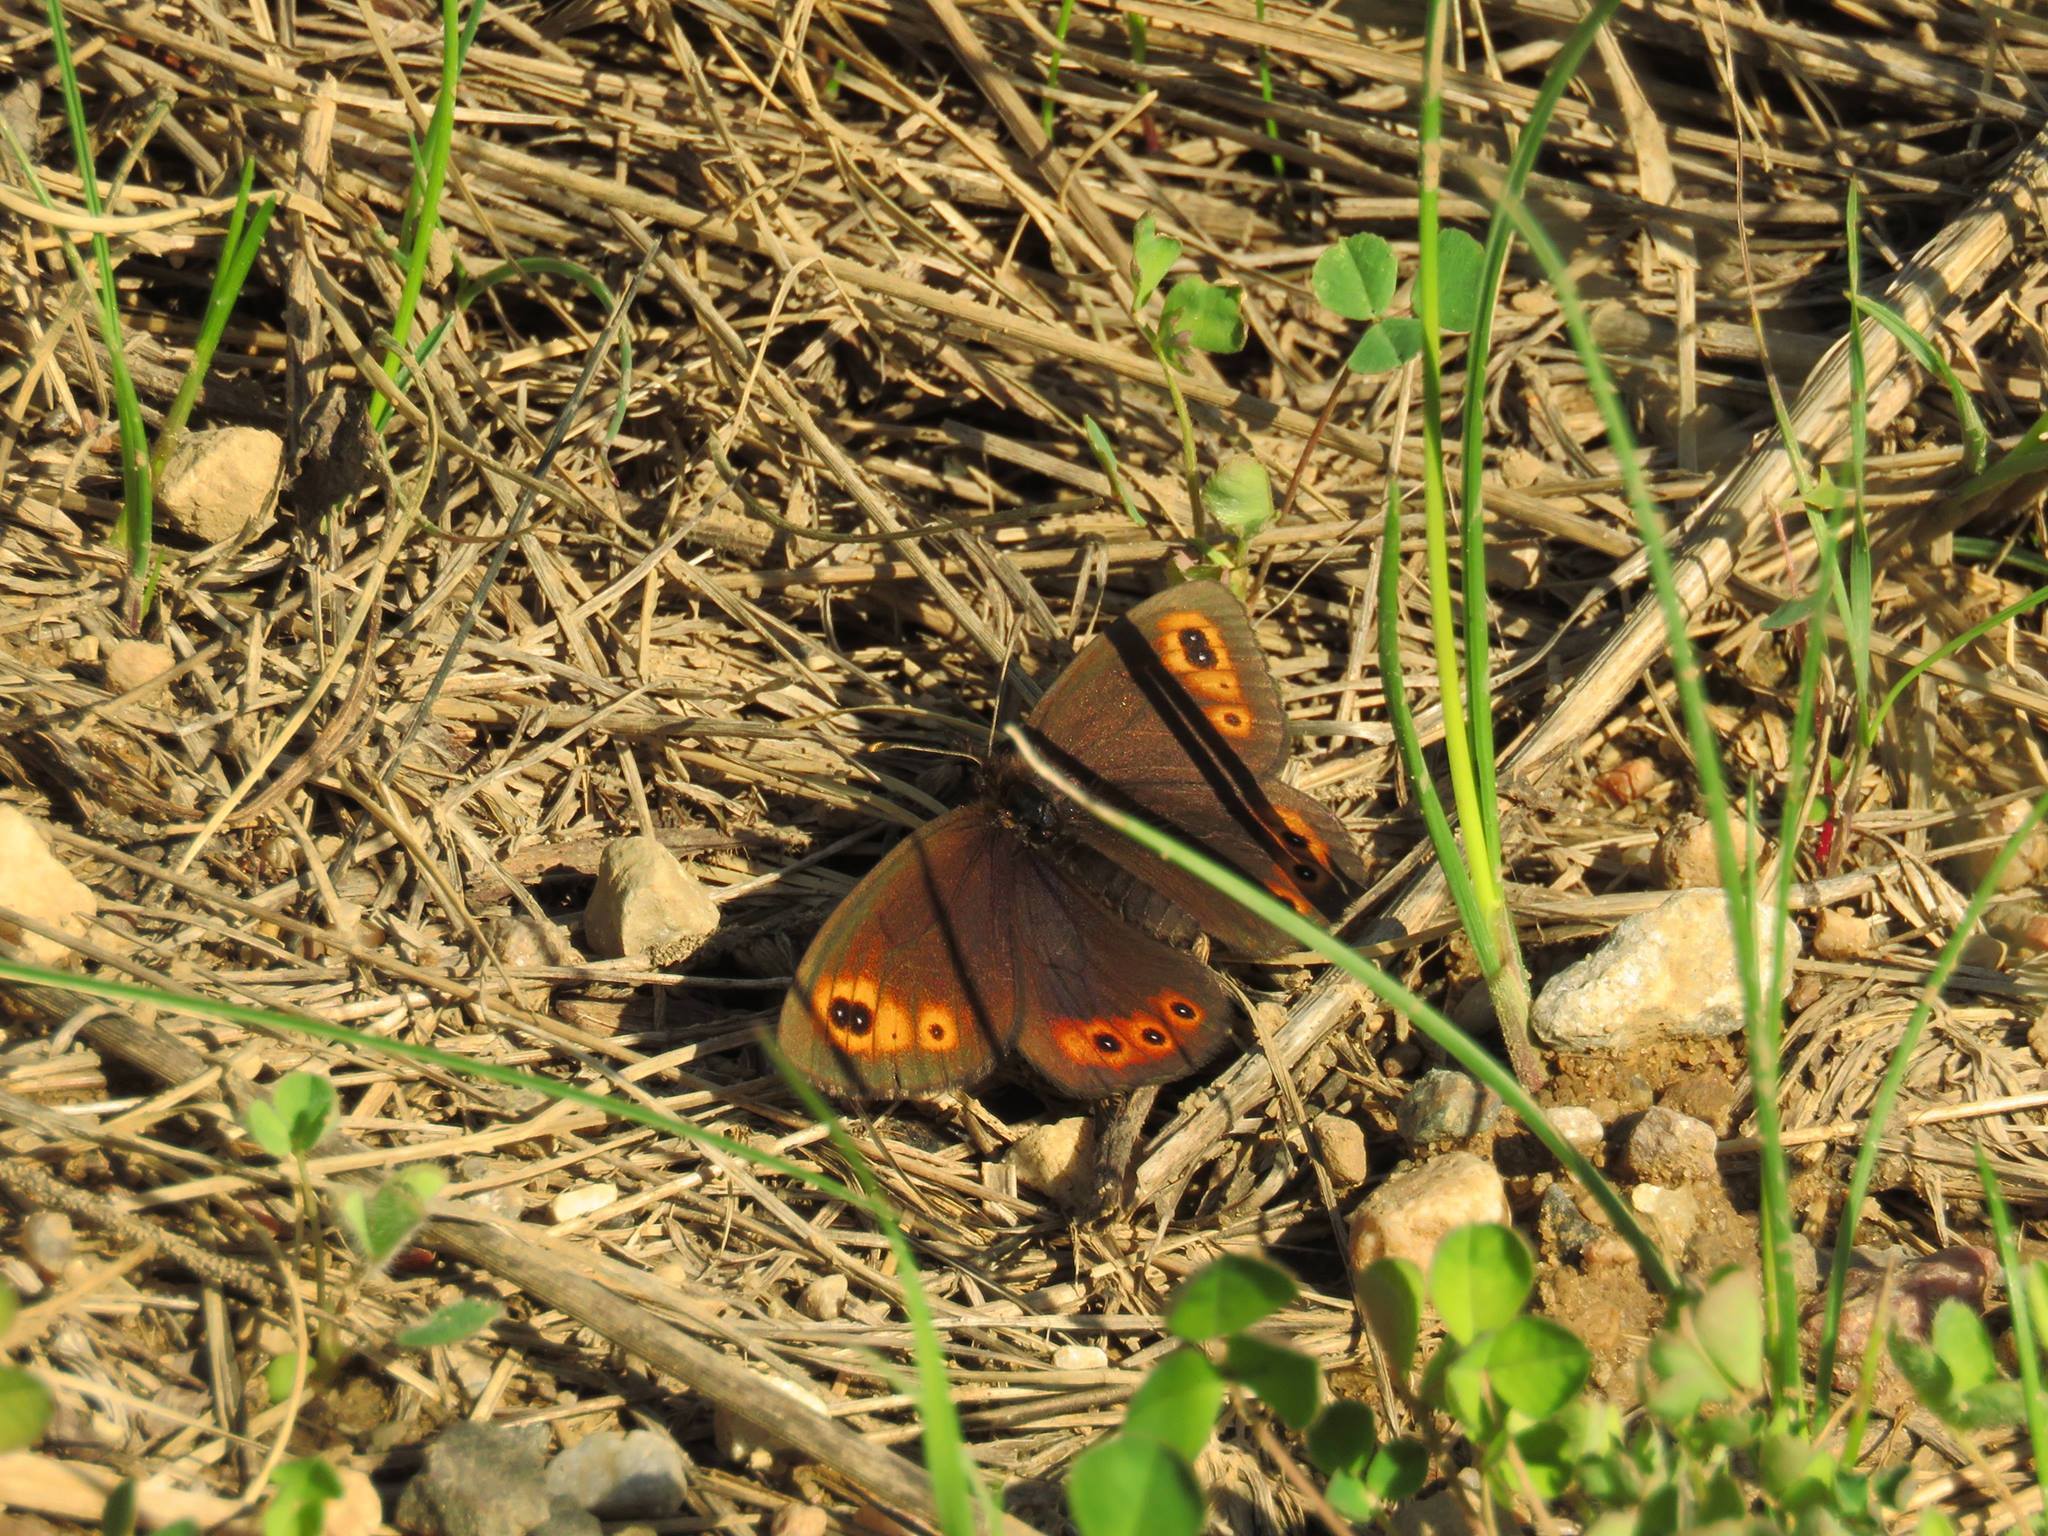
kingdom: Animalia
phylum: Arthropoda
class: Insecta
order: Lepidoptera
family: Nymphalidae
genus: Erebia
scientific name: Erebia epipsodea
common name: Common alpine
